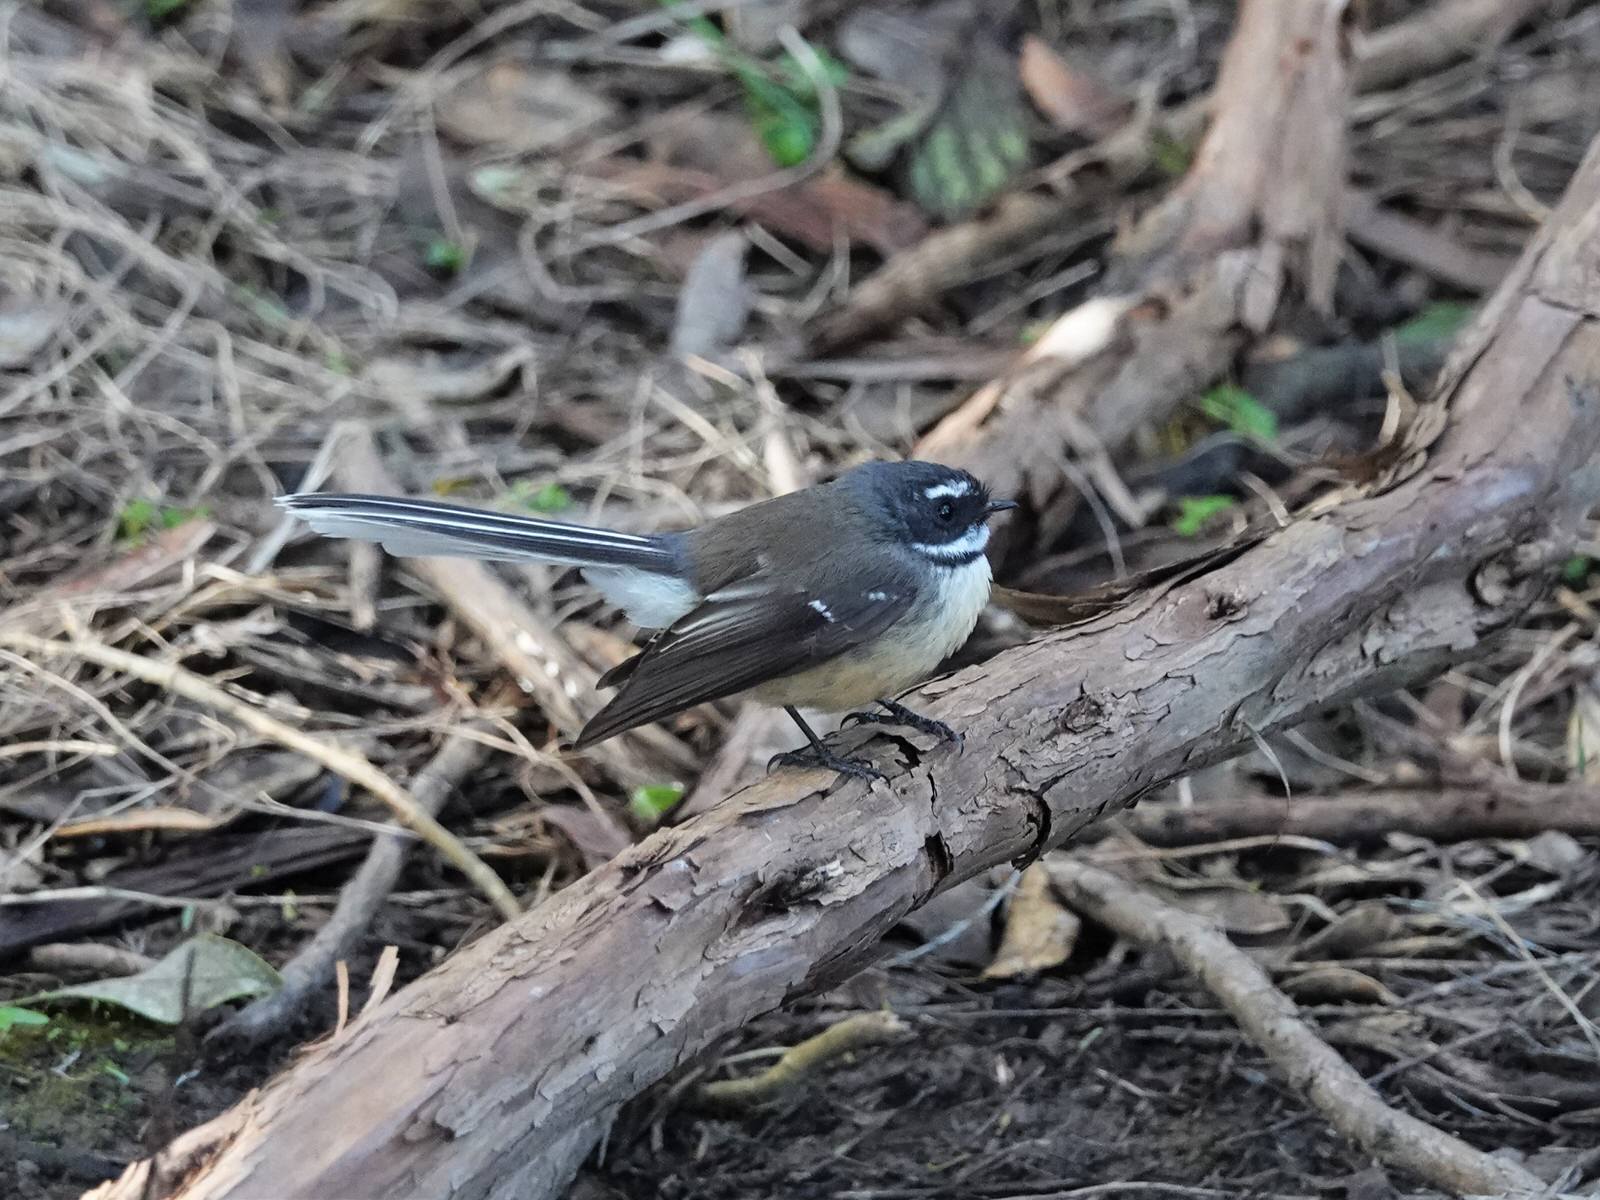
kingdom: Animalia
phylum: Chordata
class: Aves
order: Passeriformes
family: Rhipiduridae
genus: Rhipidura
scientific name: Rhipidura fuliginosa
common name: New zealand fantail
